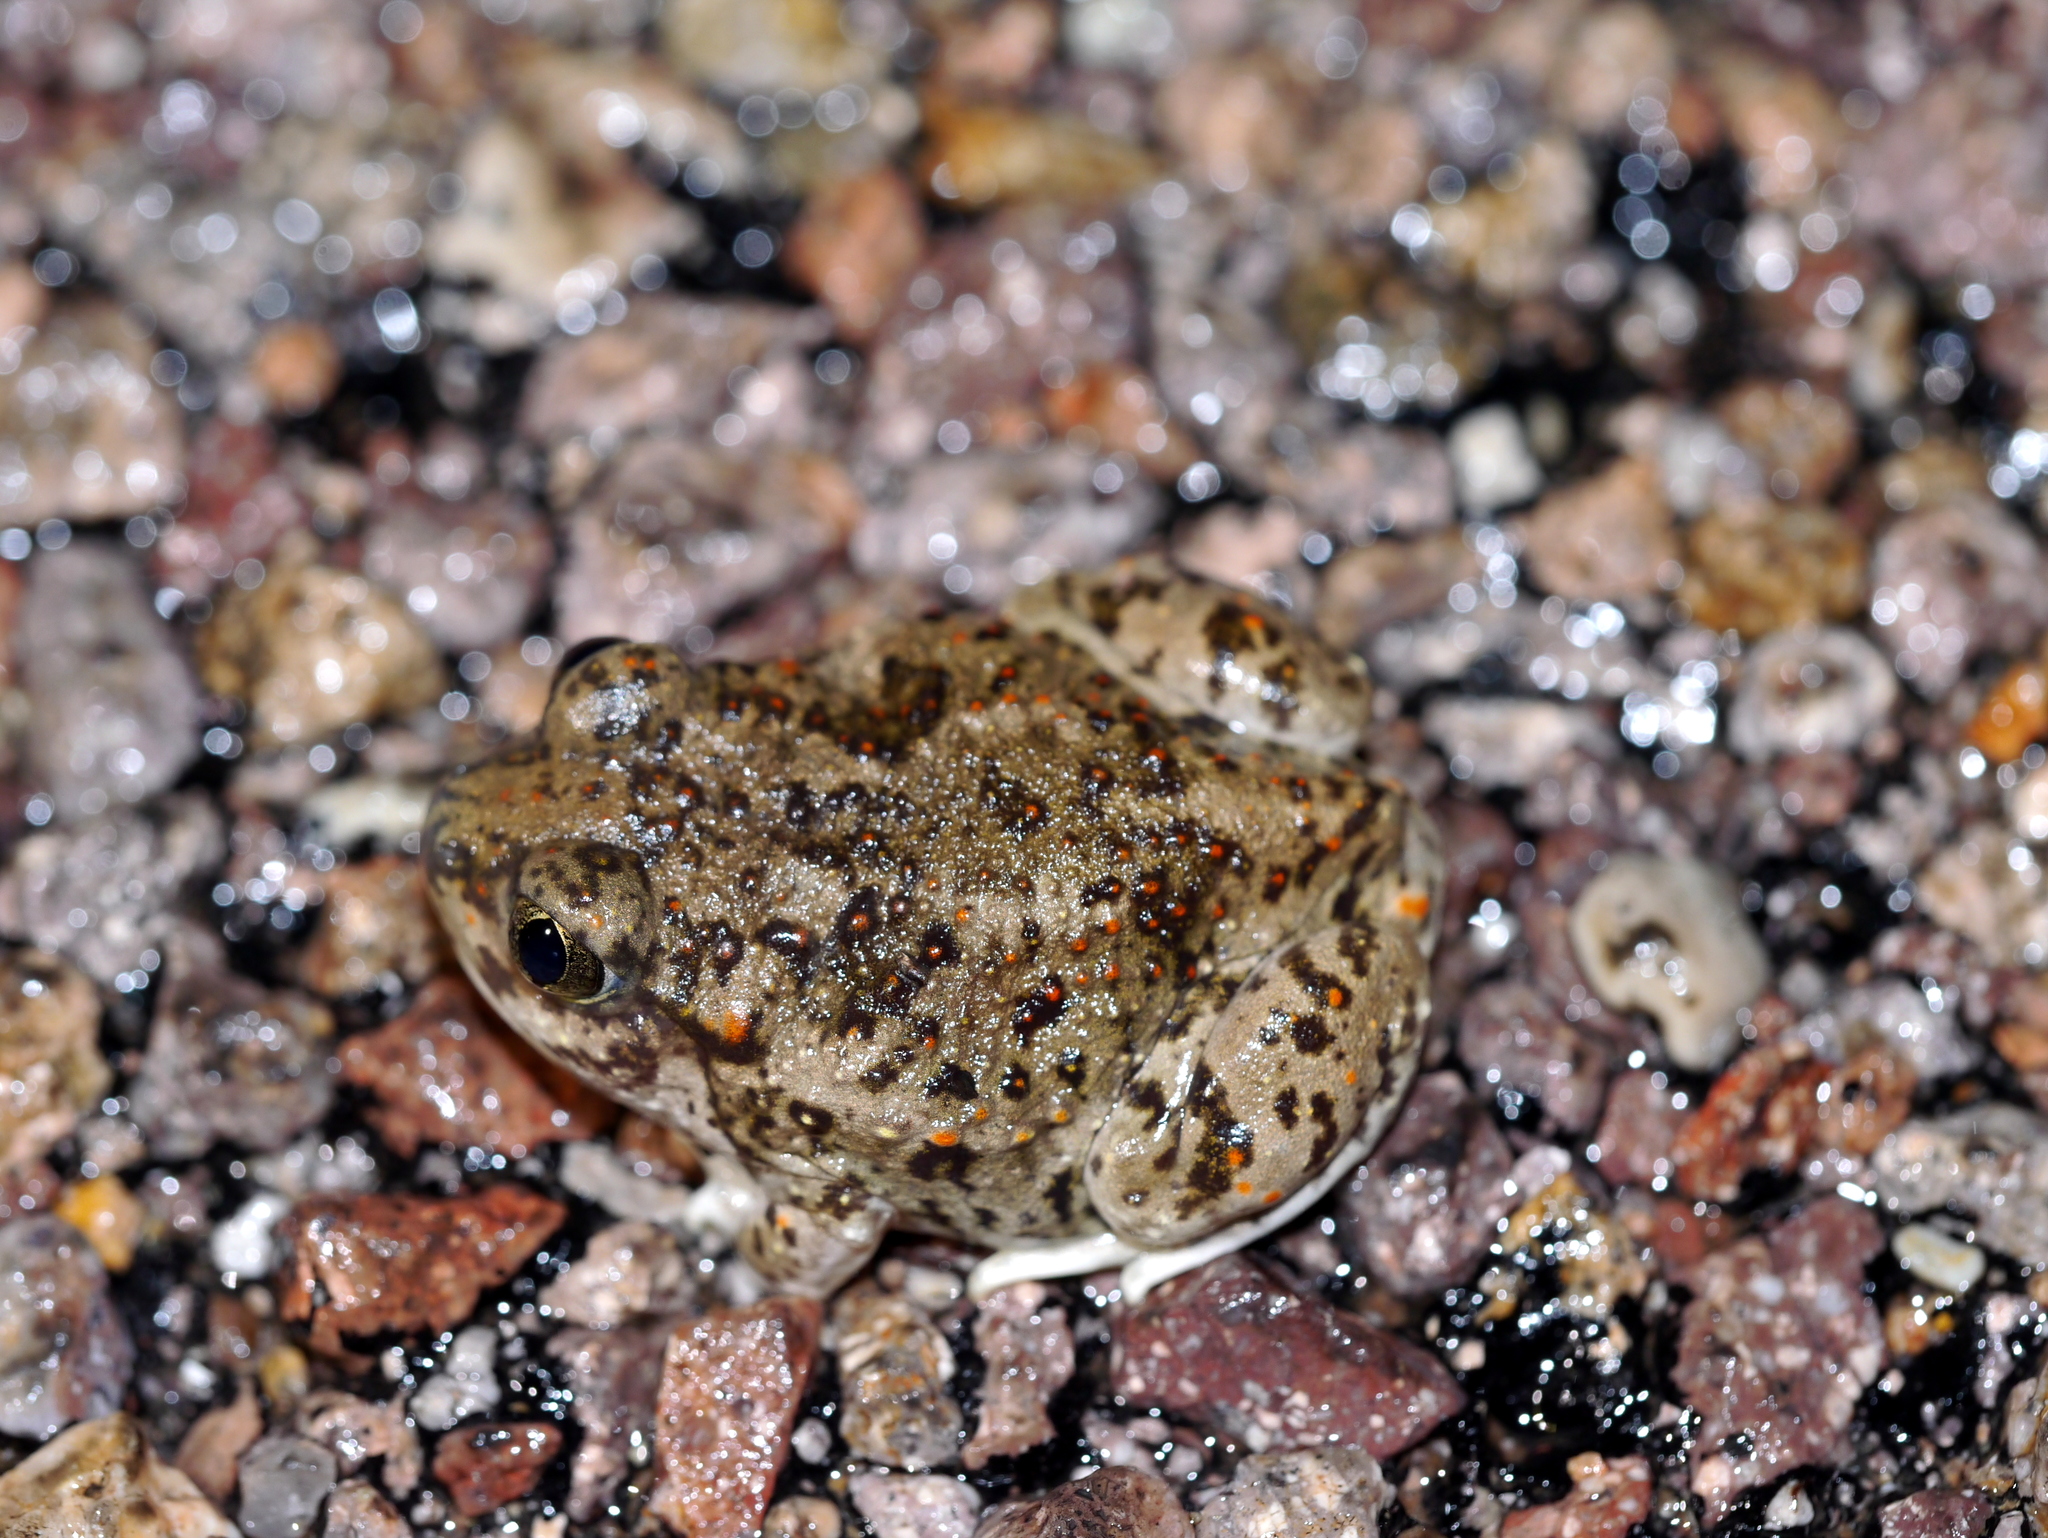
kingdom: Animalia
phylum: Chordata
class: Amphibia
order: Anura
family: Scaphiopodidae
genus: Spea
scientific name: Spea multiplicata
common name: Mexican spadefoot
